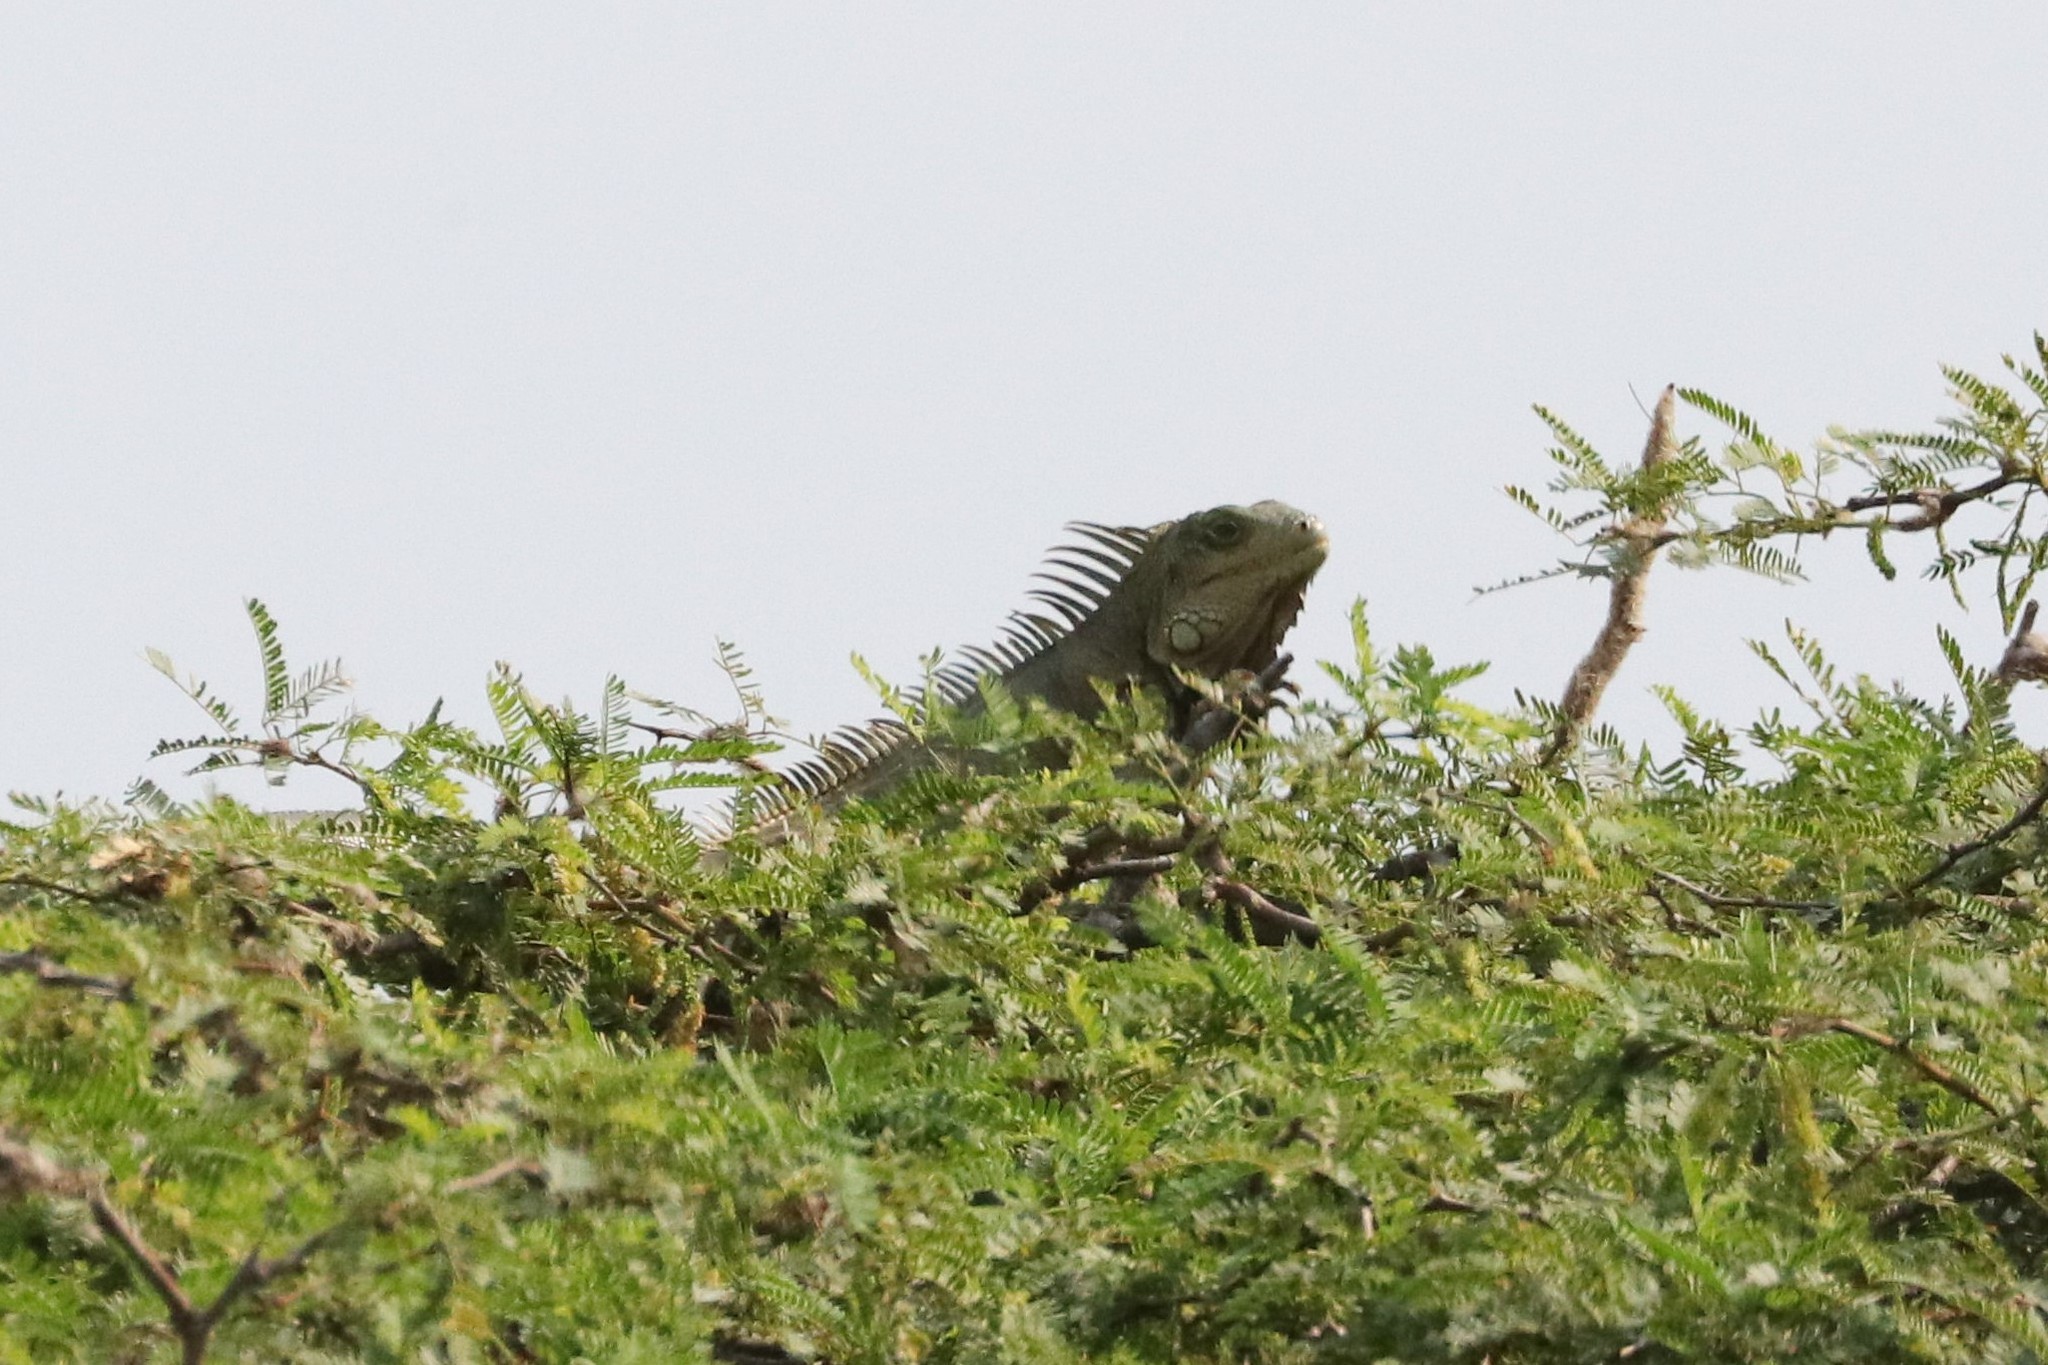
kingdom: Animalia
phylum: Chordata
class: Squamata
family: Iguanidae
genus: Iguana
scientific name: Iguana iguana
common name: Green iguana
